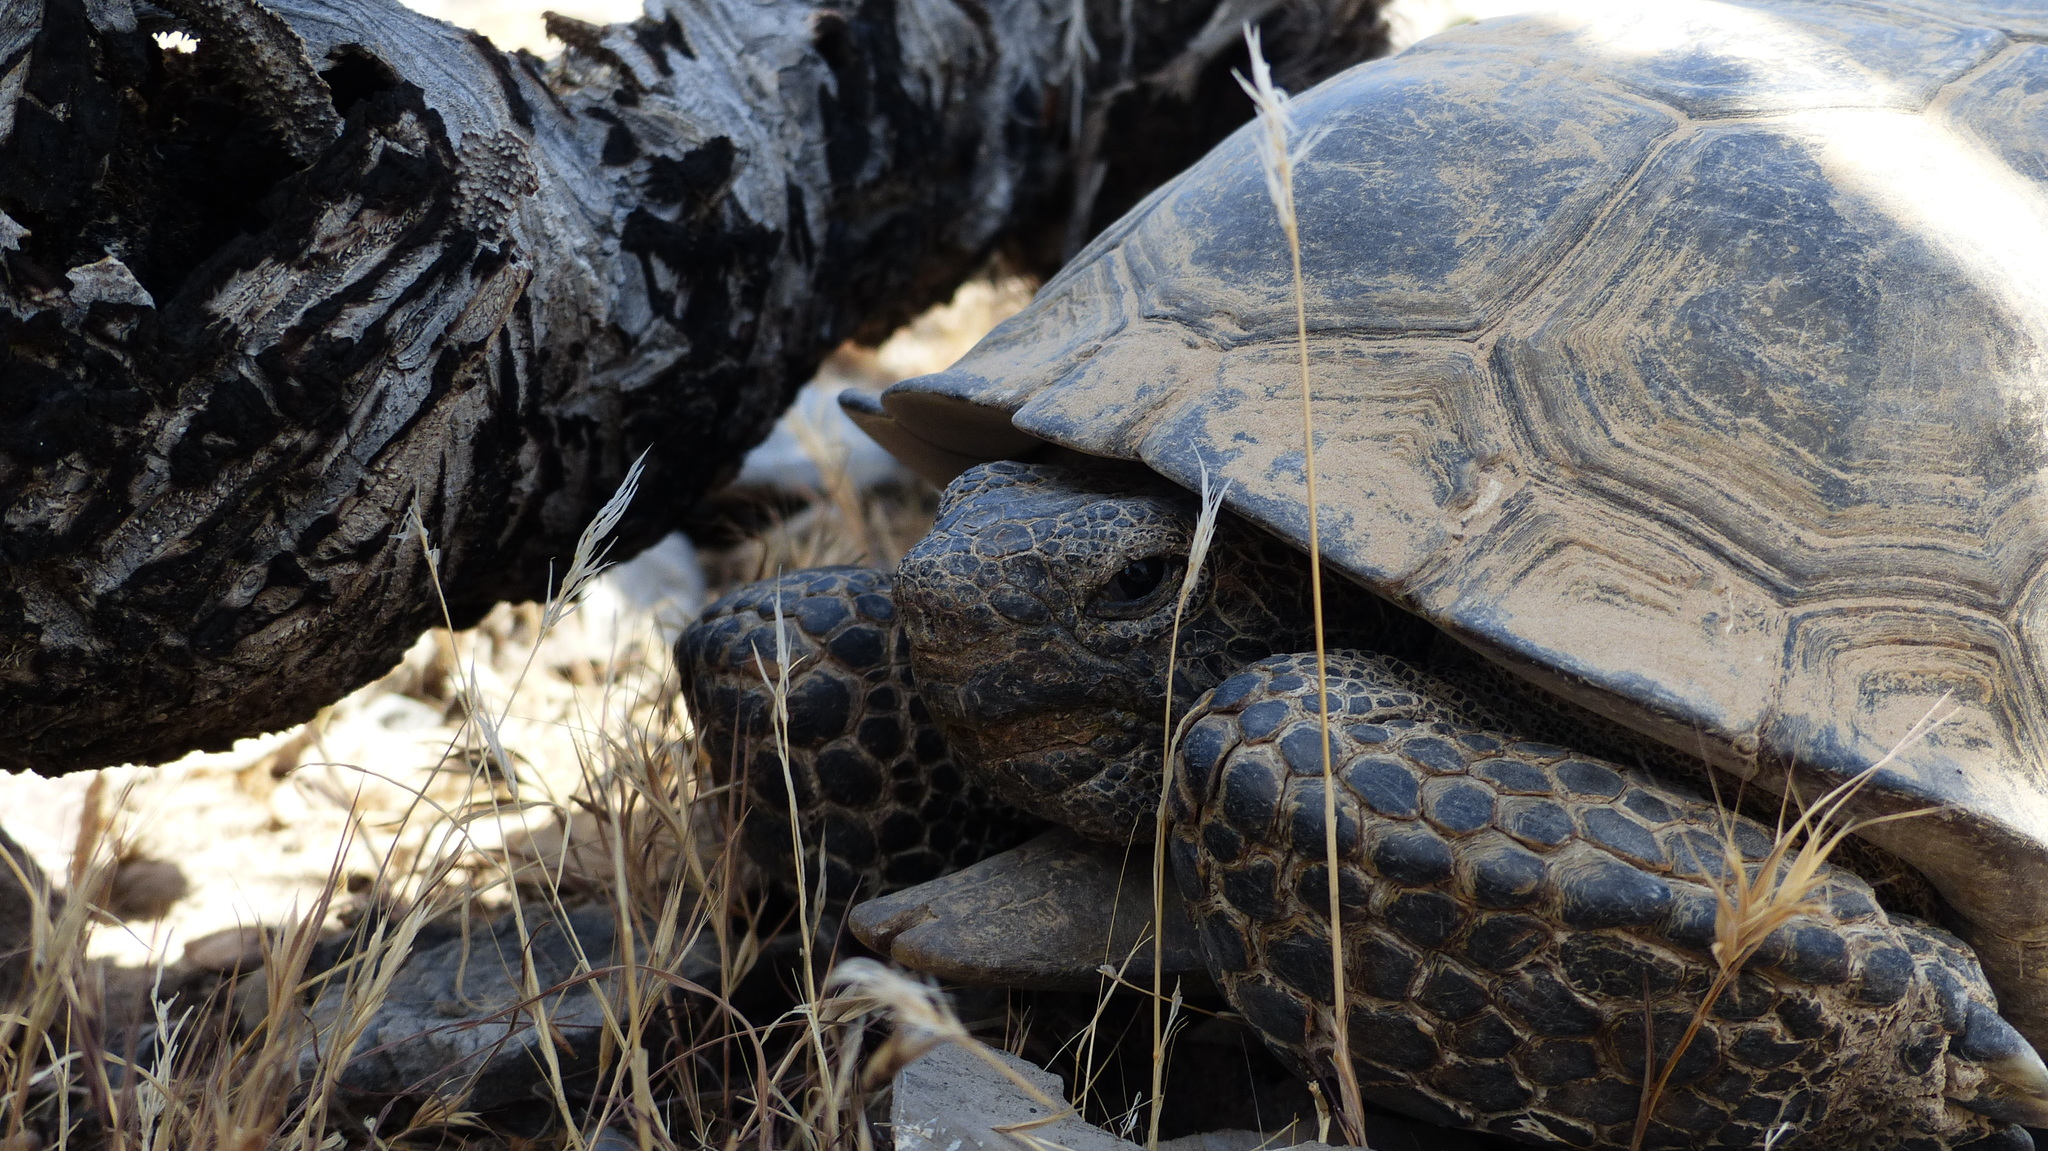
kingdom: Animalia
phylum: Chordata
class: Testudines
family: Testudinidae
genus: Gopherus
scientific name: Gopherus agassizii
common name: Mojave desert tortoise
